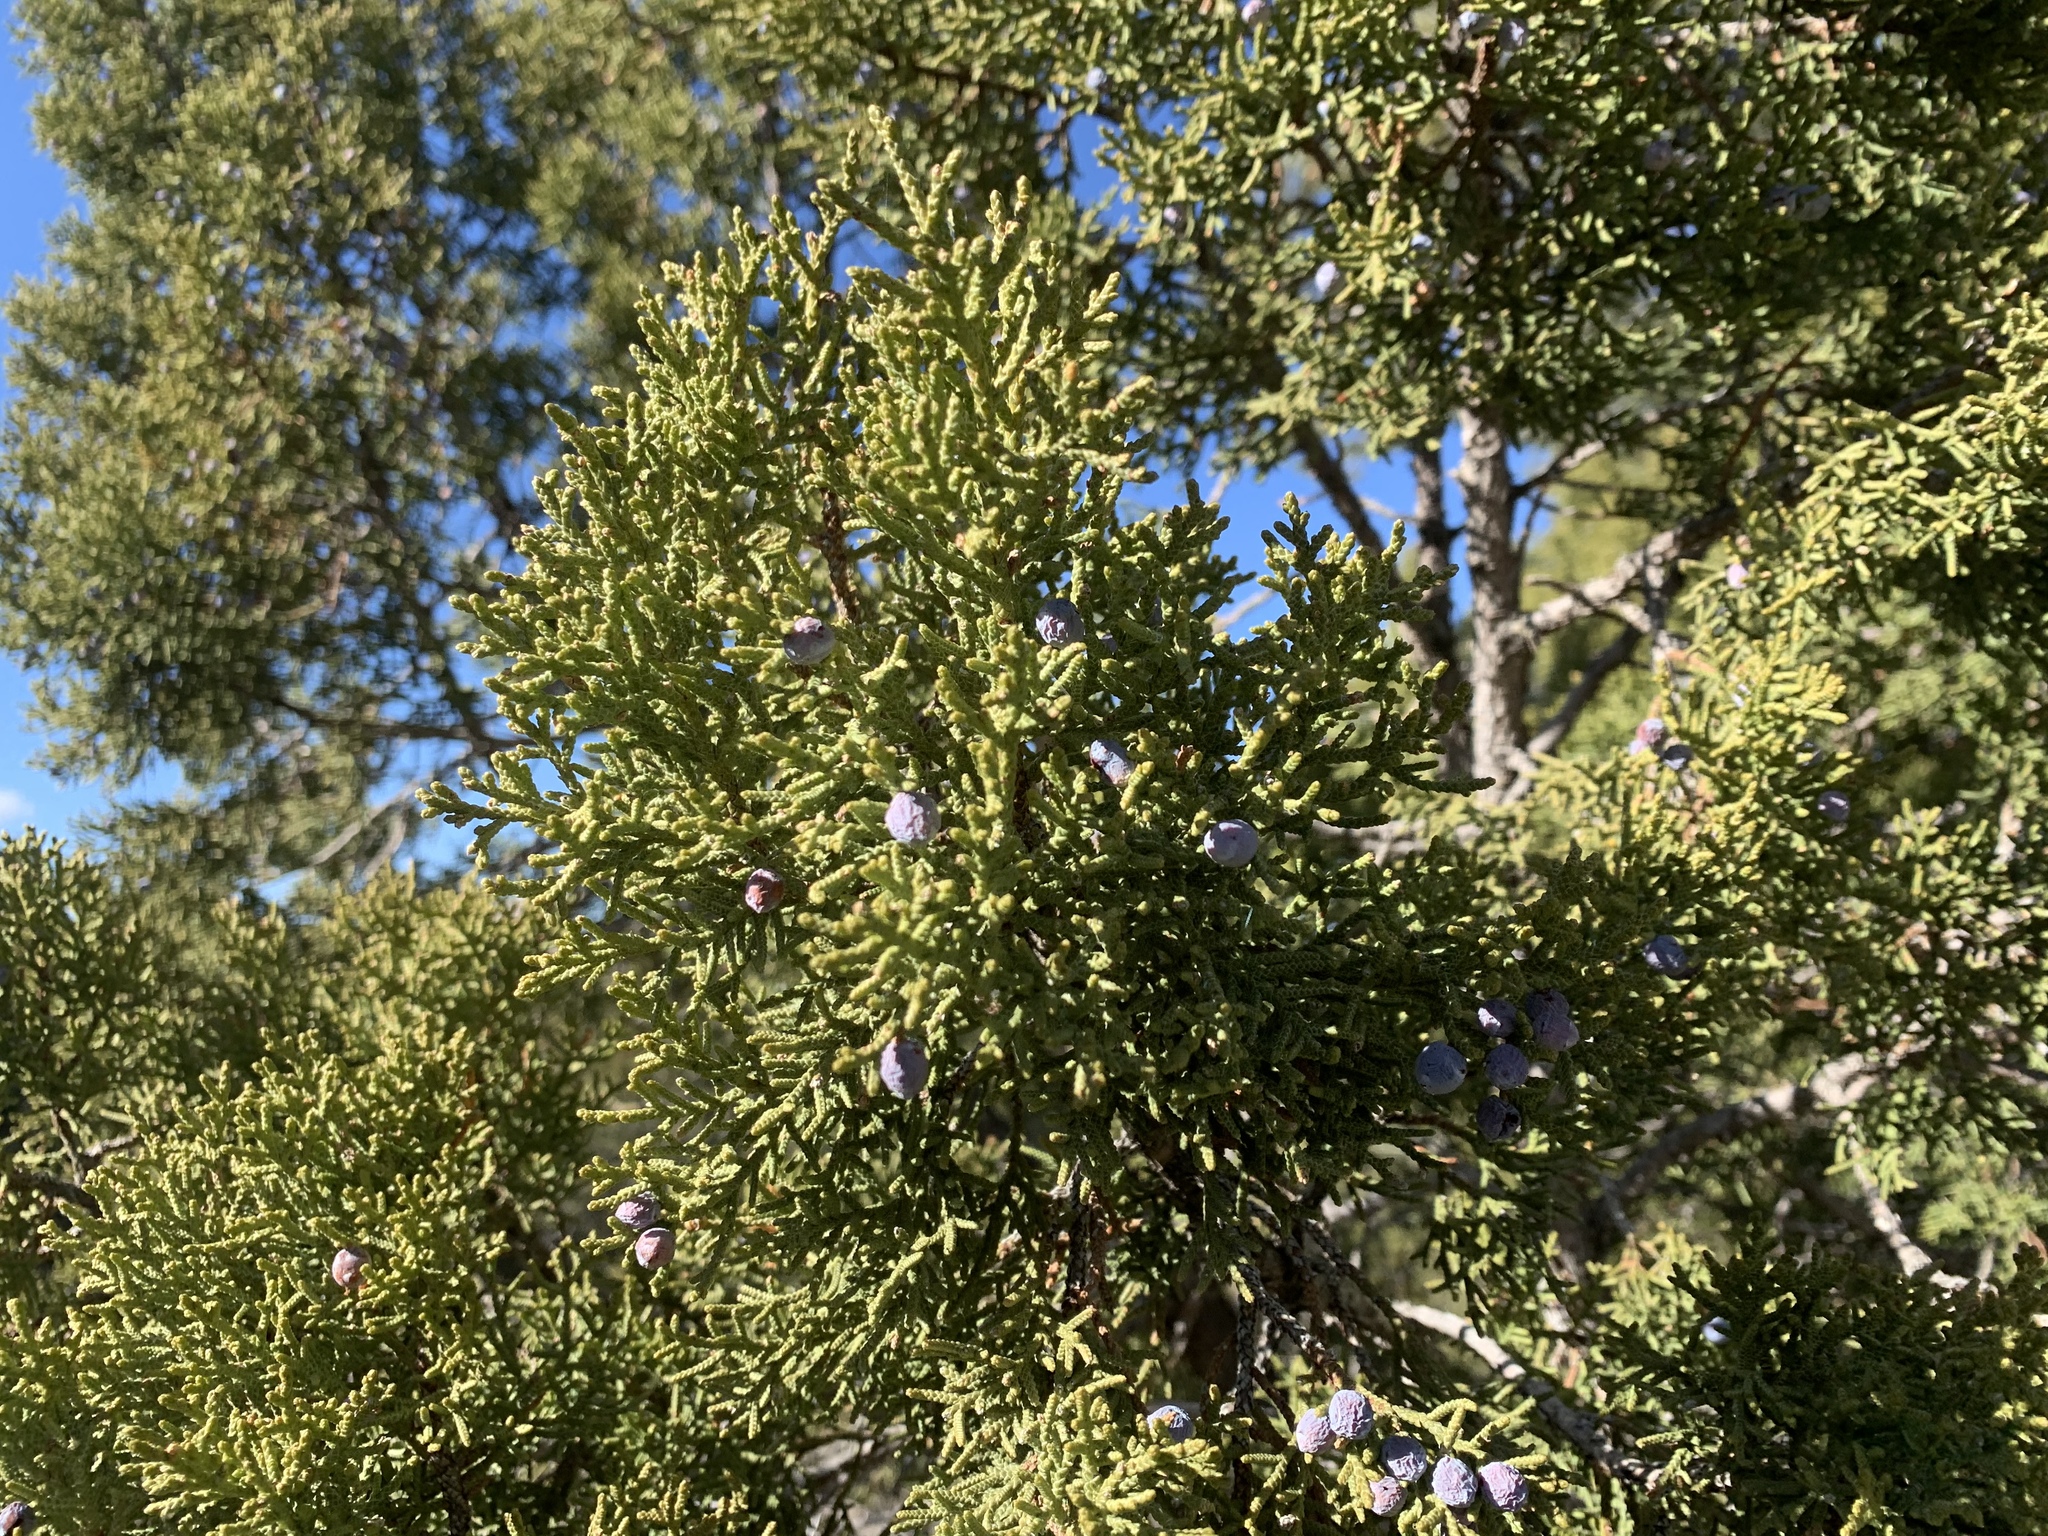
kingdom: Plantae
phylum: Tracheophyta
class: Pinopsida
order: Pinales
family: Cupressaceae
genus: Juniperus
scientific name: Juniperus monosperma
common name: One-seed juniper
